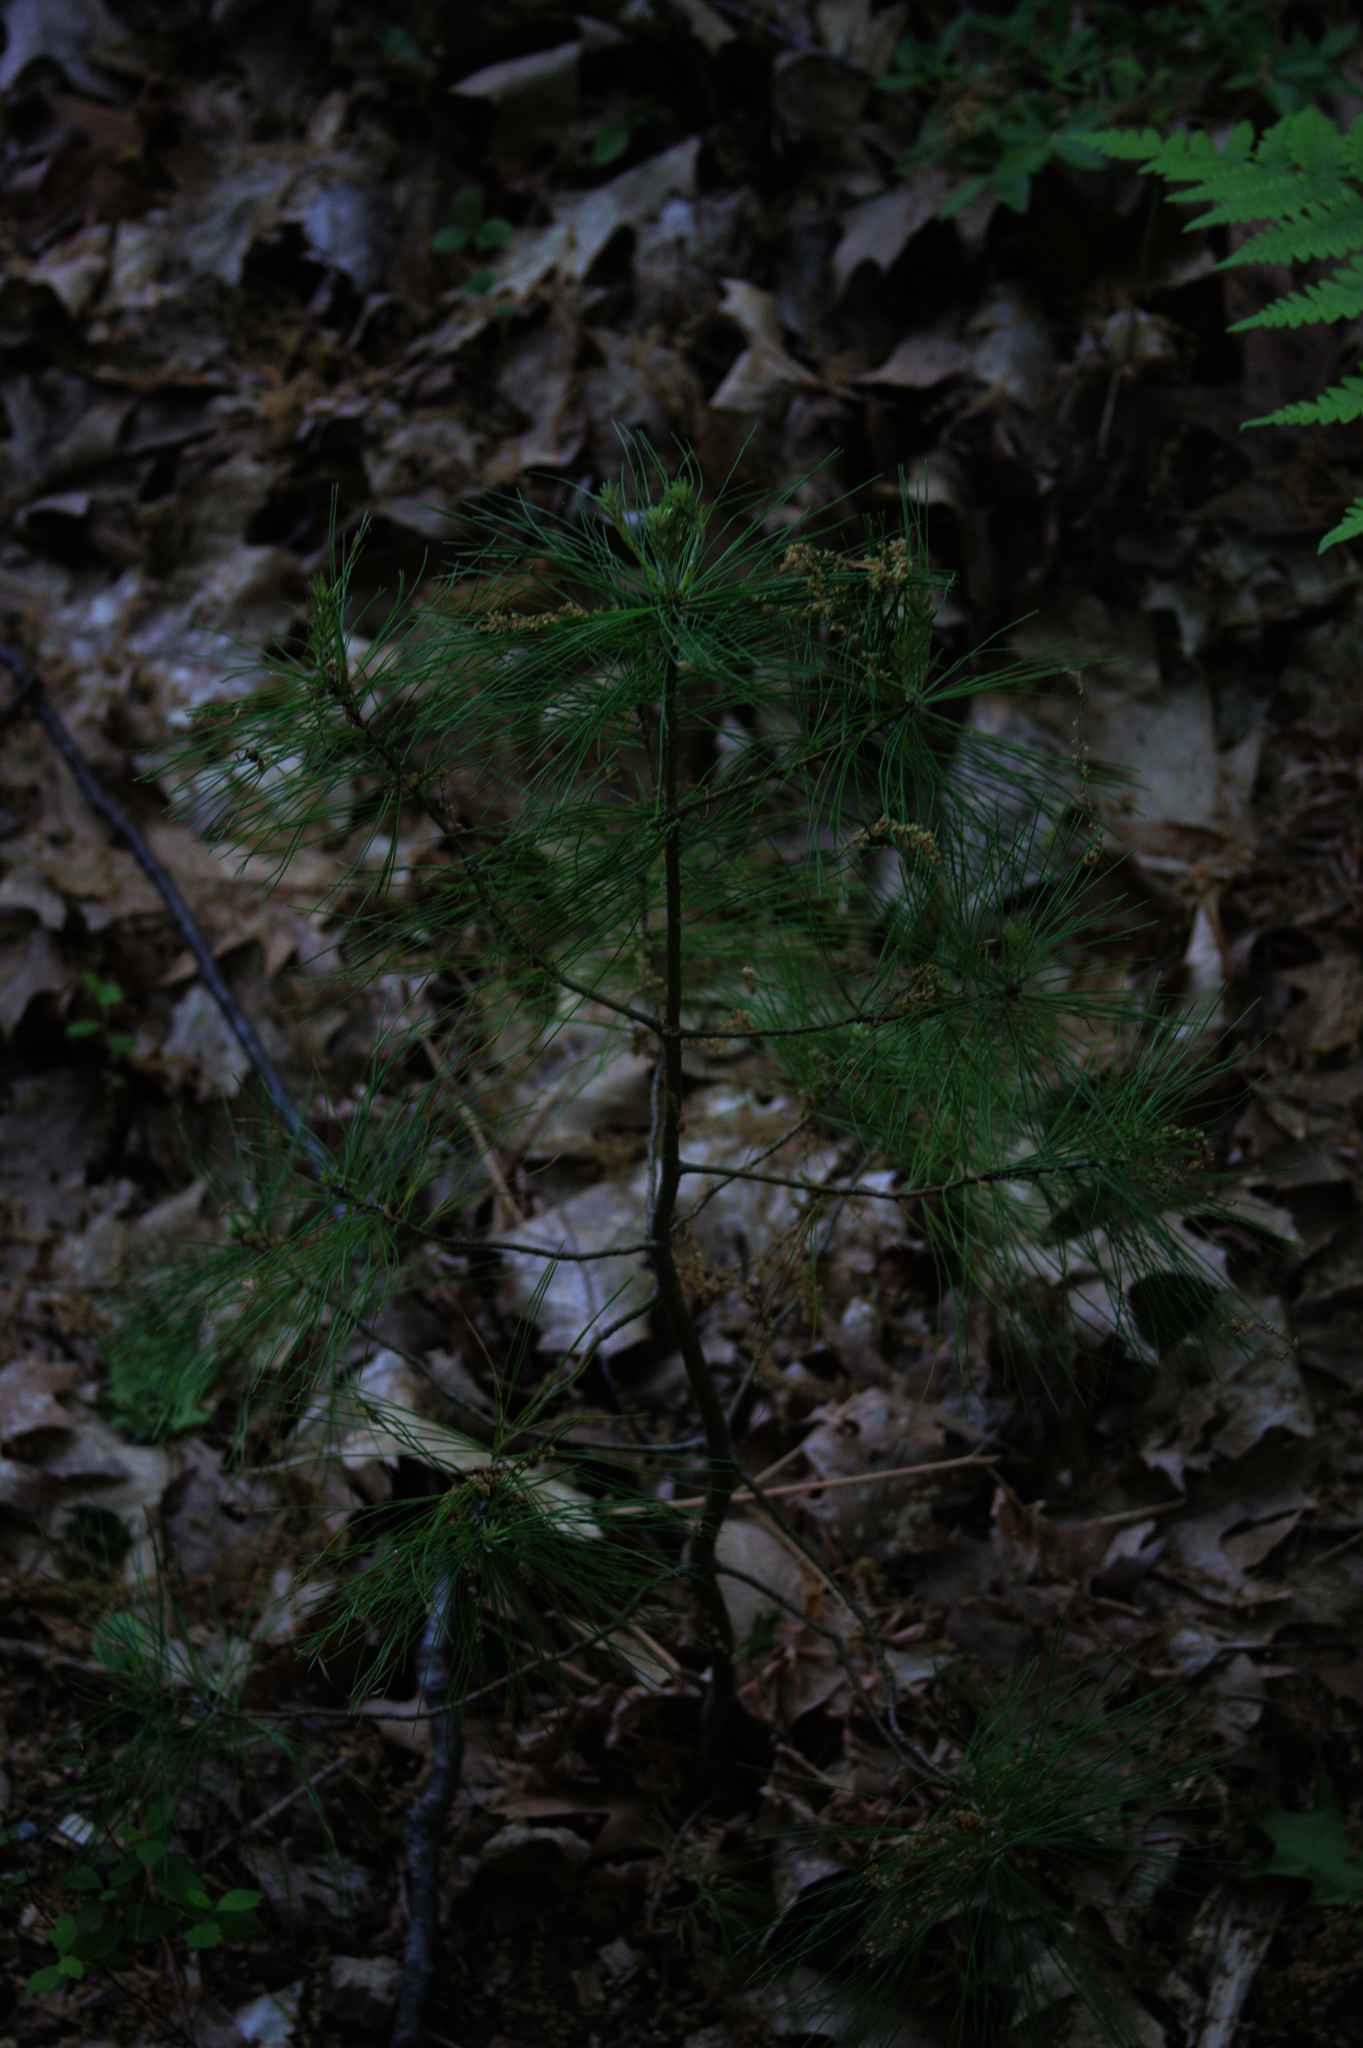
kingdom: Plantae
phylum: Tracheophyta
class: Pinopsida
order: Pinales
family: Pinaceae
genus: Pinus
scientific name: Pinus strobus
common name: Weymouth pine
